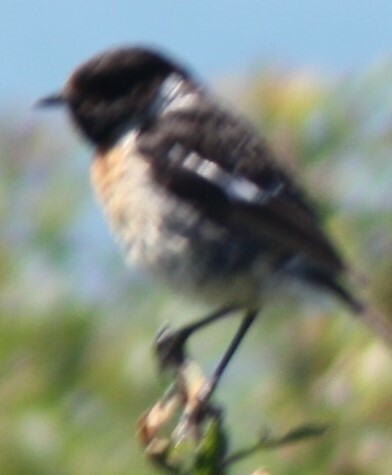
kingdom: Animalia
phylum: Chordata
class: Aves
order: Passeriformes
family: Muscicapidae
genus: Saxicola
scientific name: Saxicola rubicola
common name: European stonechat
